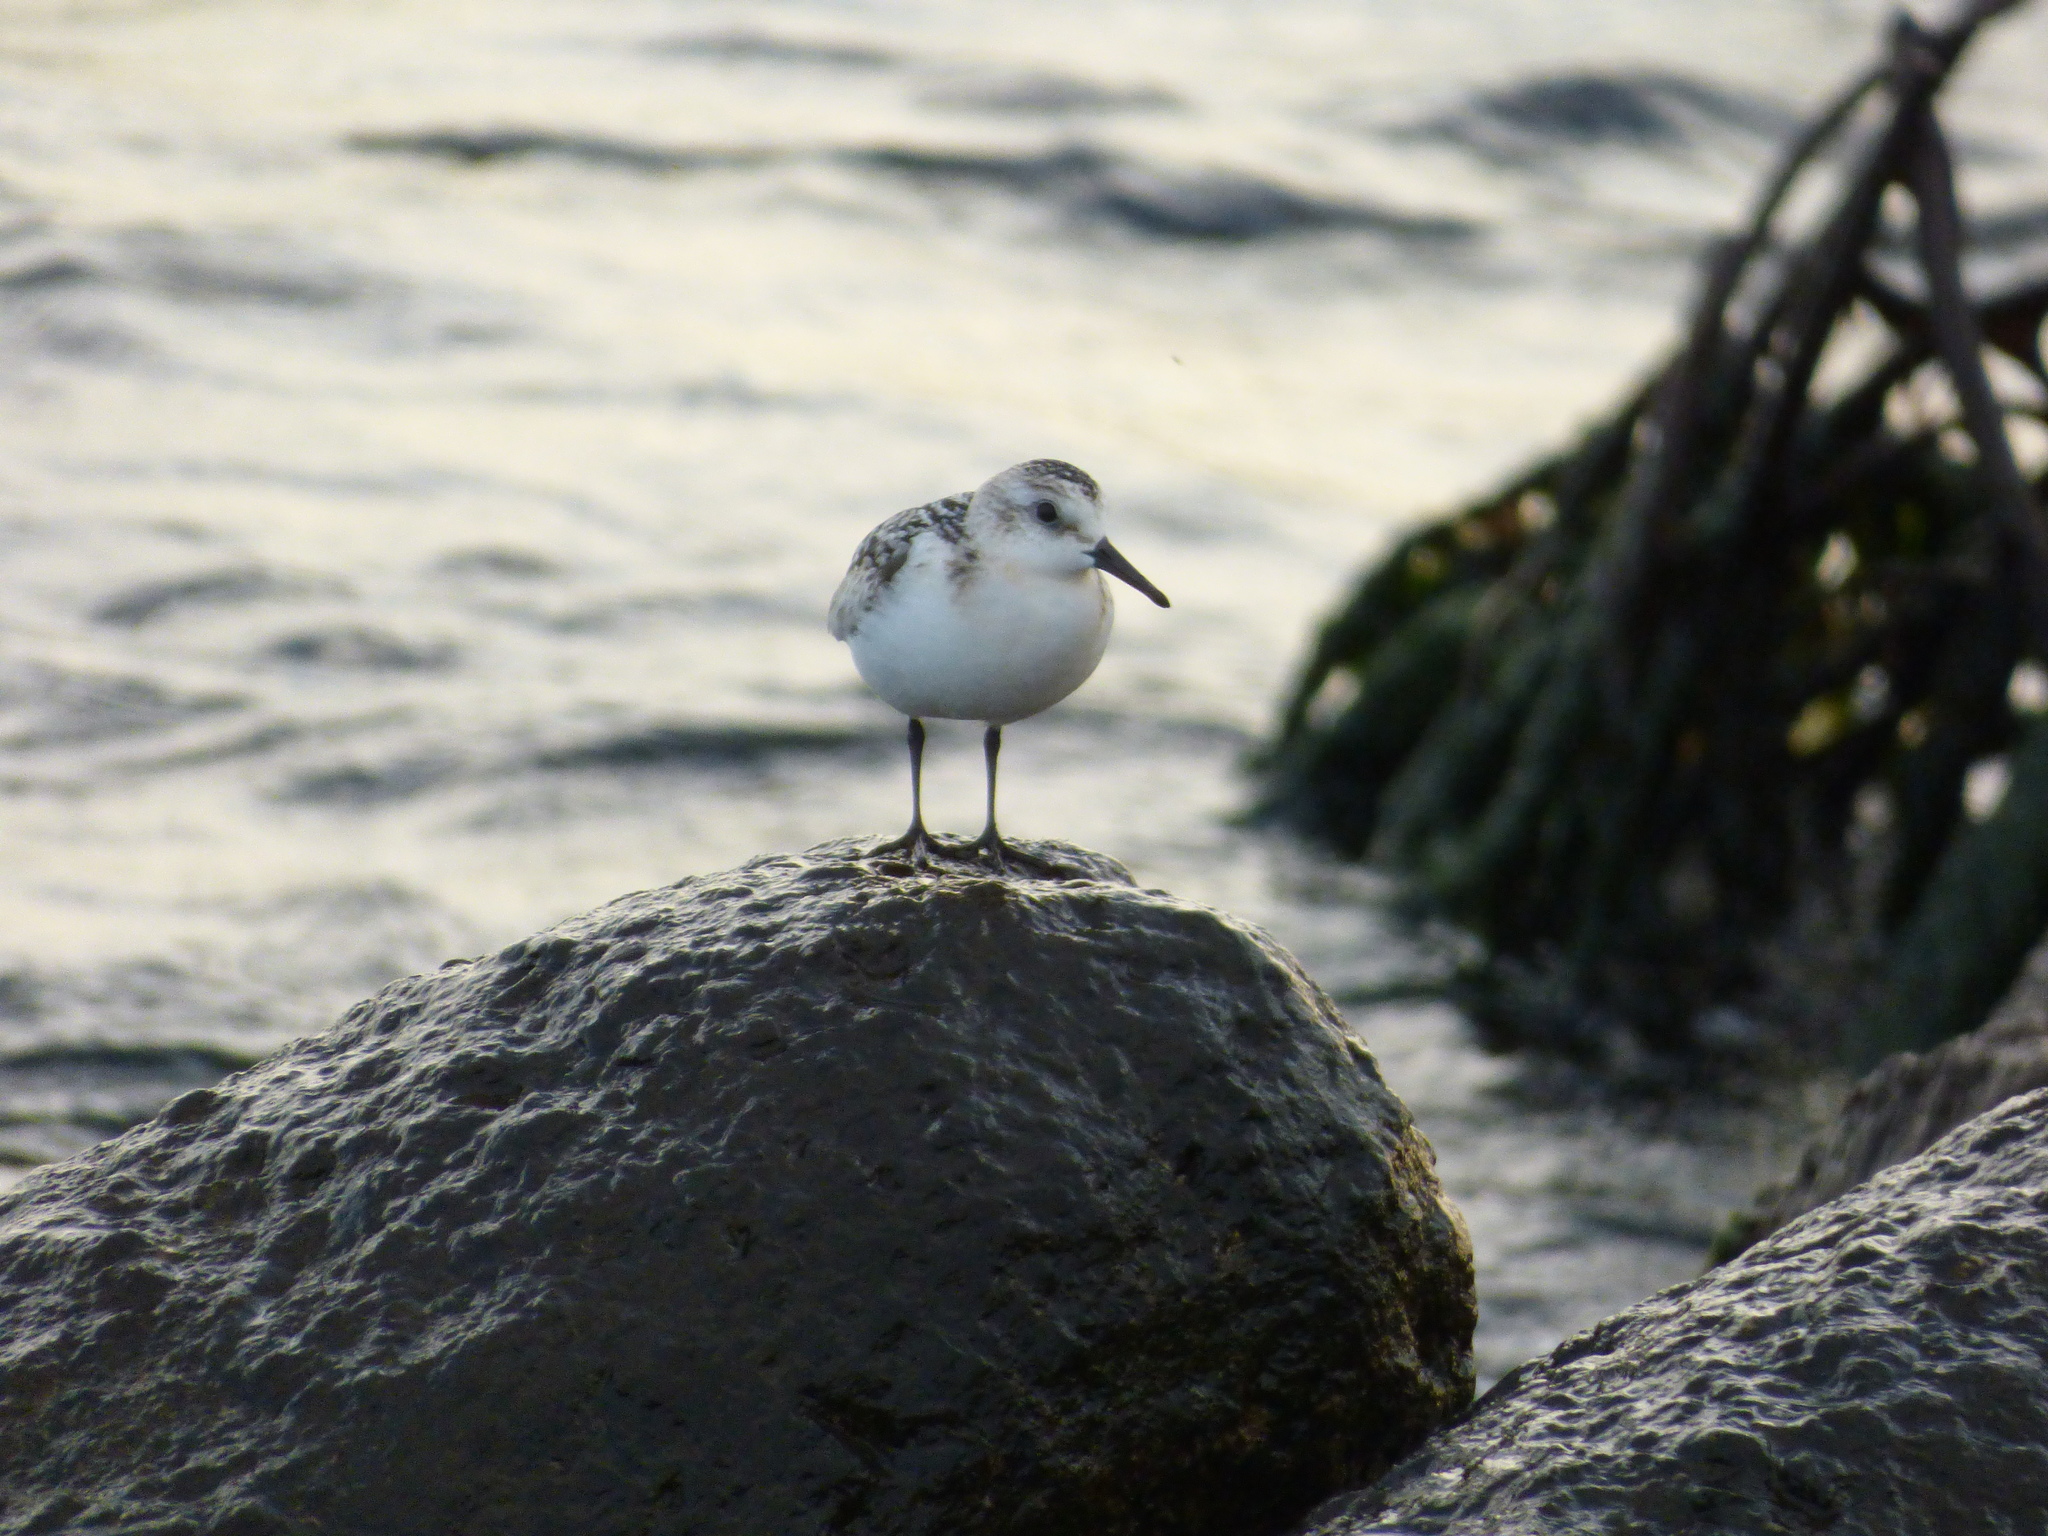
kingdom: Animalia
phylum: Chordata
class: Aves
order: Charadriiformes
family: Scolopacidae
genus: Calidris
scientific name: Calidris alba
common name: Sanderling
